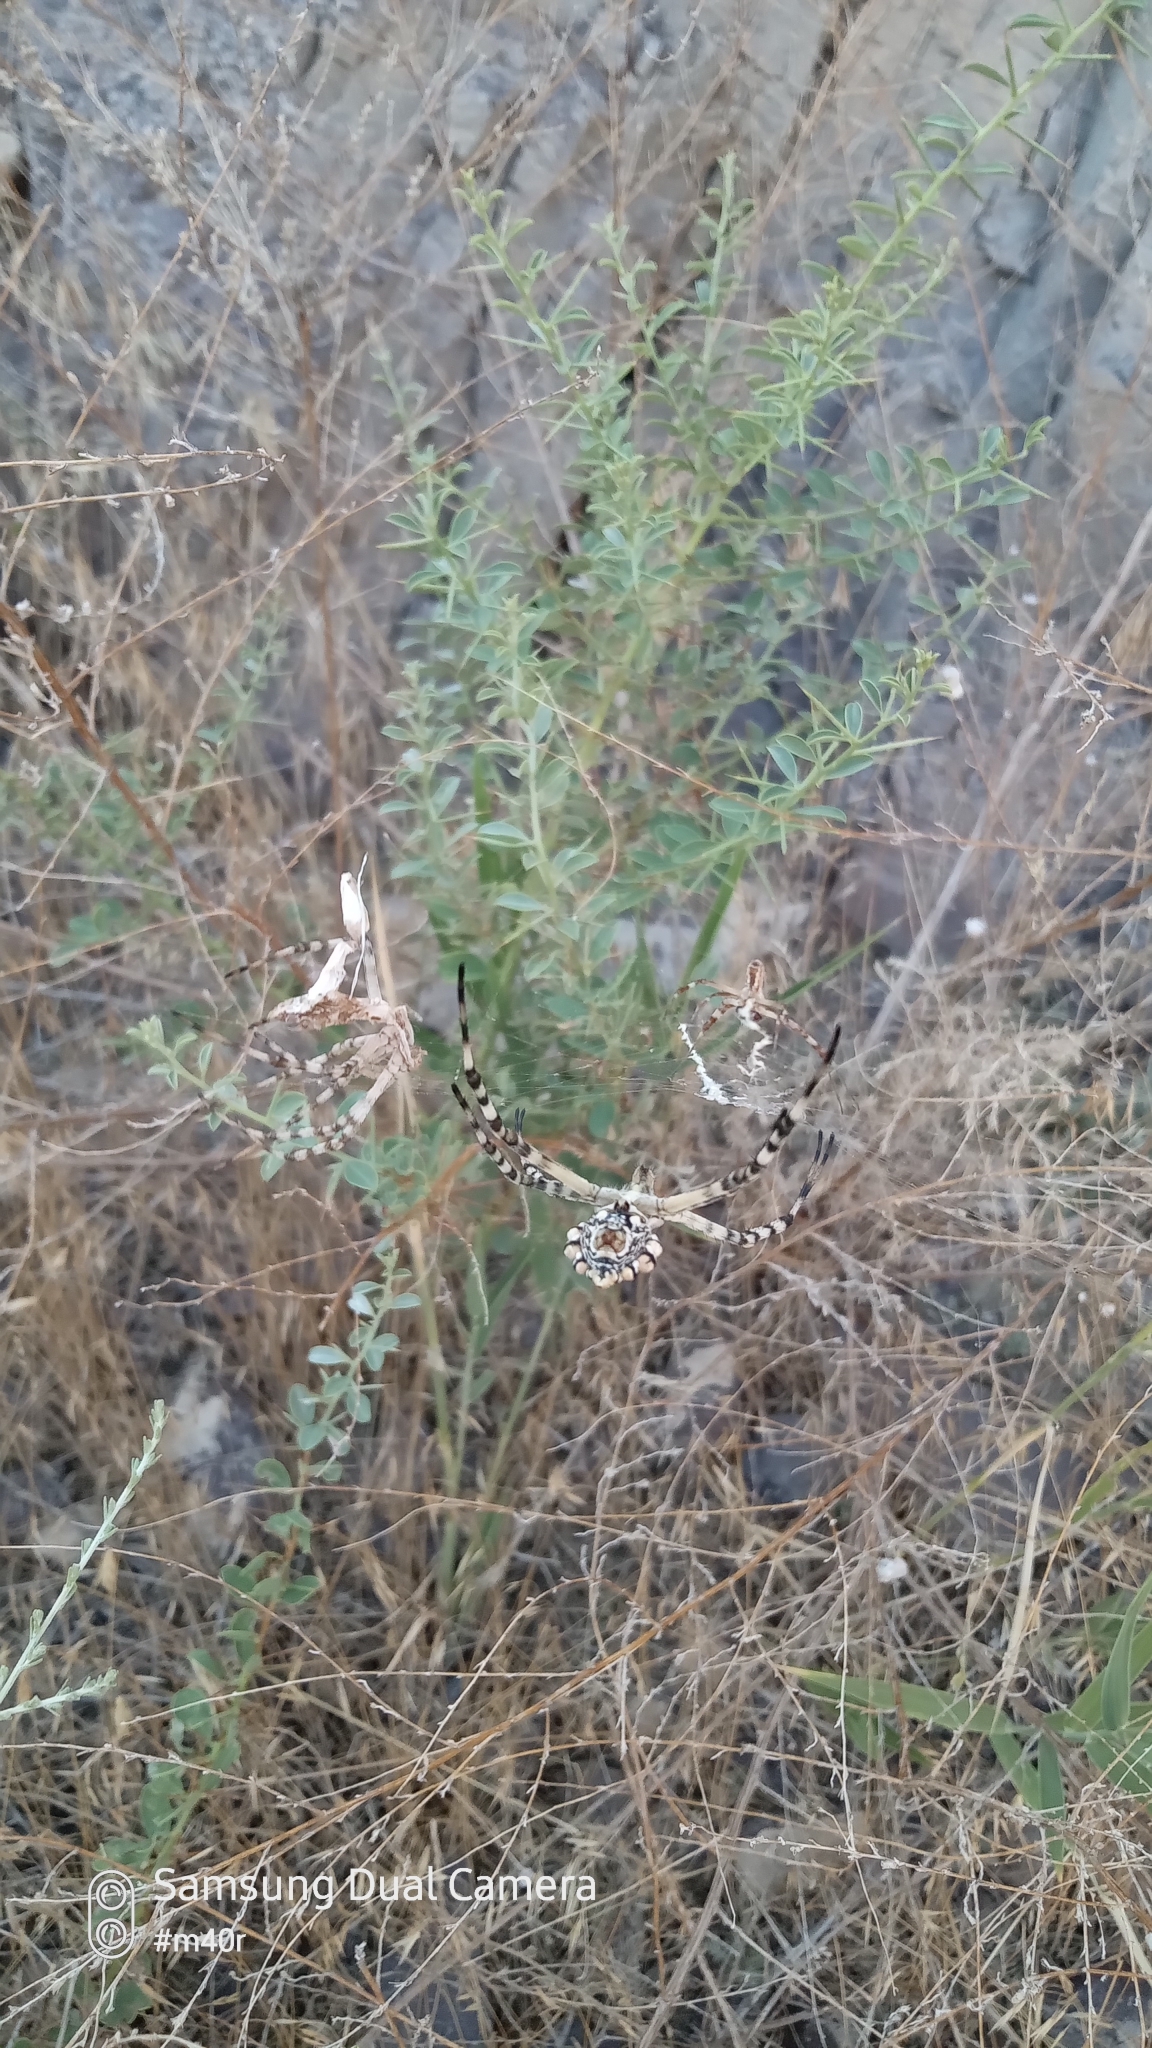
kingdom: Animalia
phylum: Arthropoda
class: Arachnida
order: Araneae
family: Araneidae
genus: Argiope
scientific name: Argiope lobata
